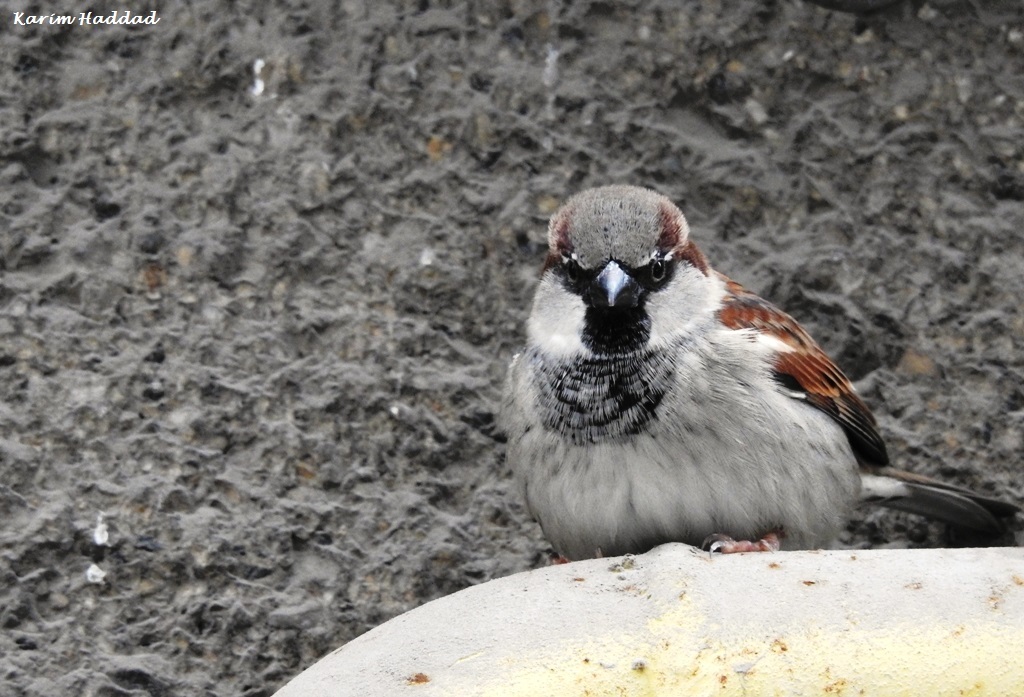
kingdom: Animalia
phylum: Chordata
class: Aves
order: Passeriformes
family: Passeridae
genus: Passer
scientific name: Passer domesticus
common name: House sparrow
